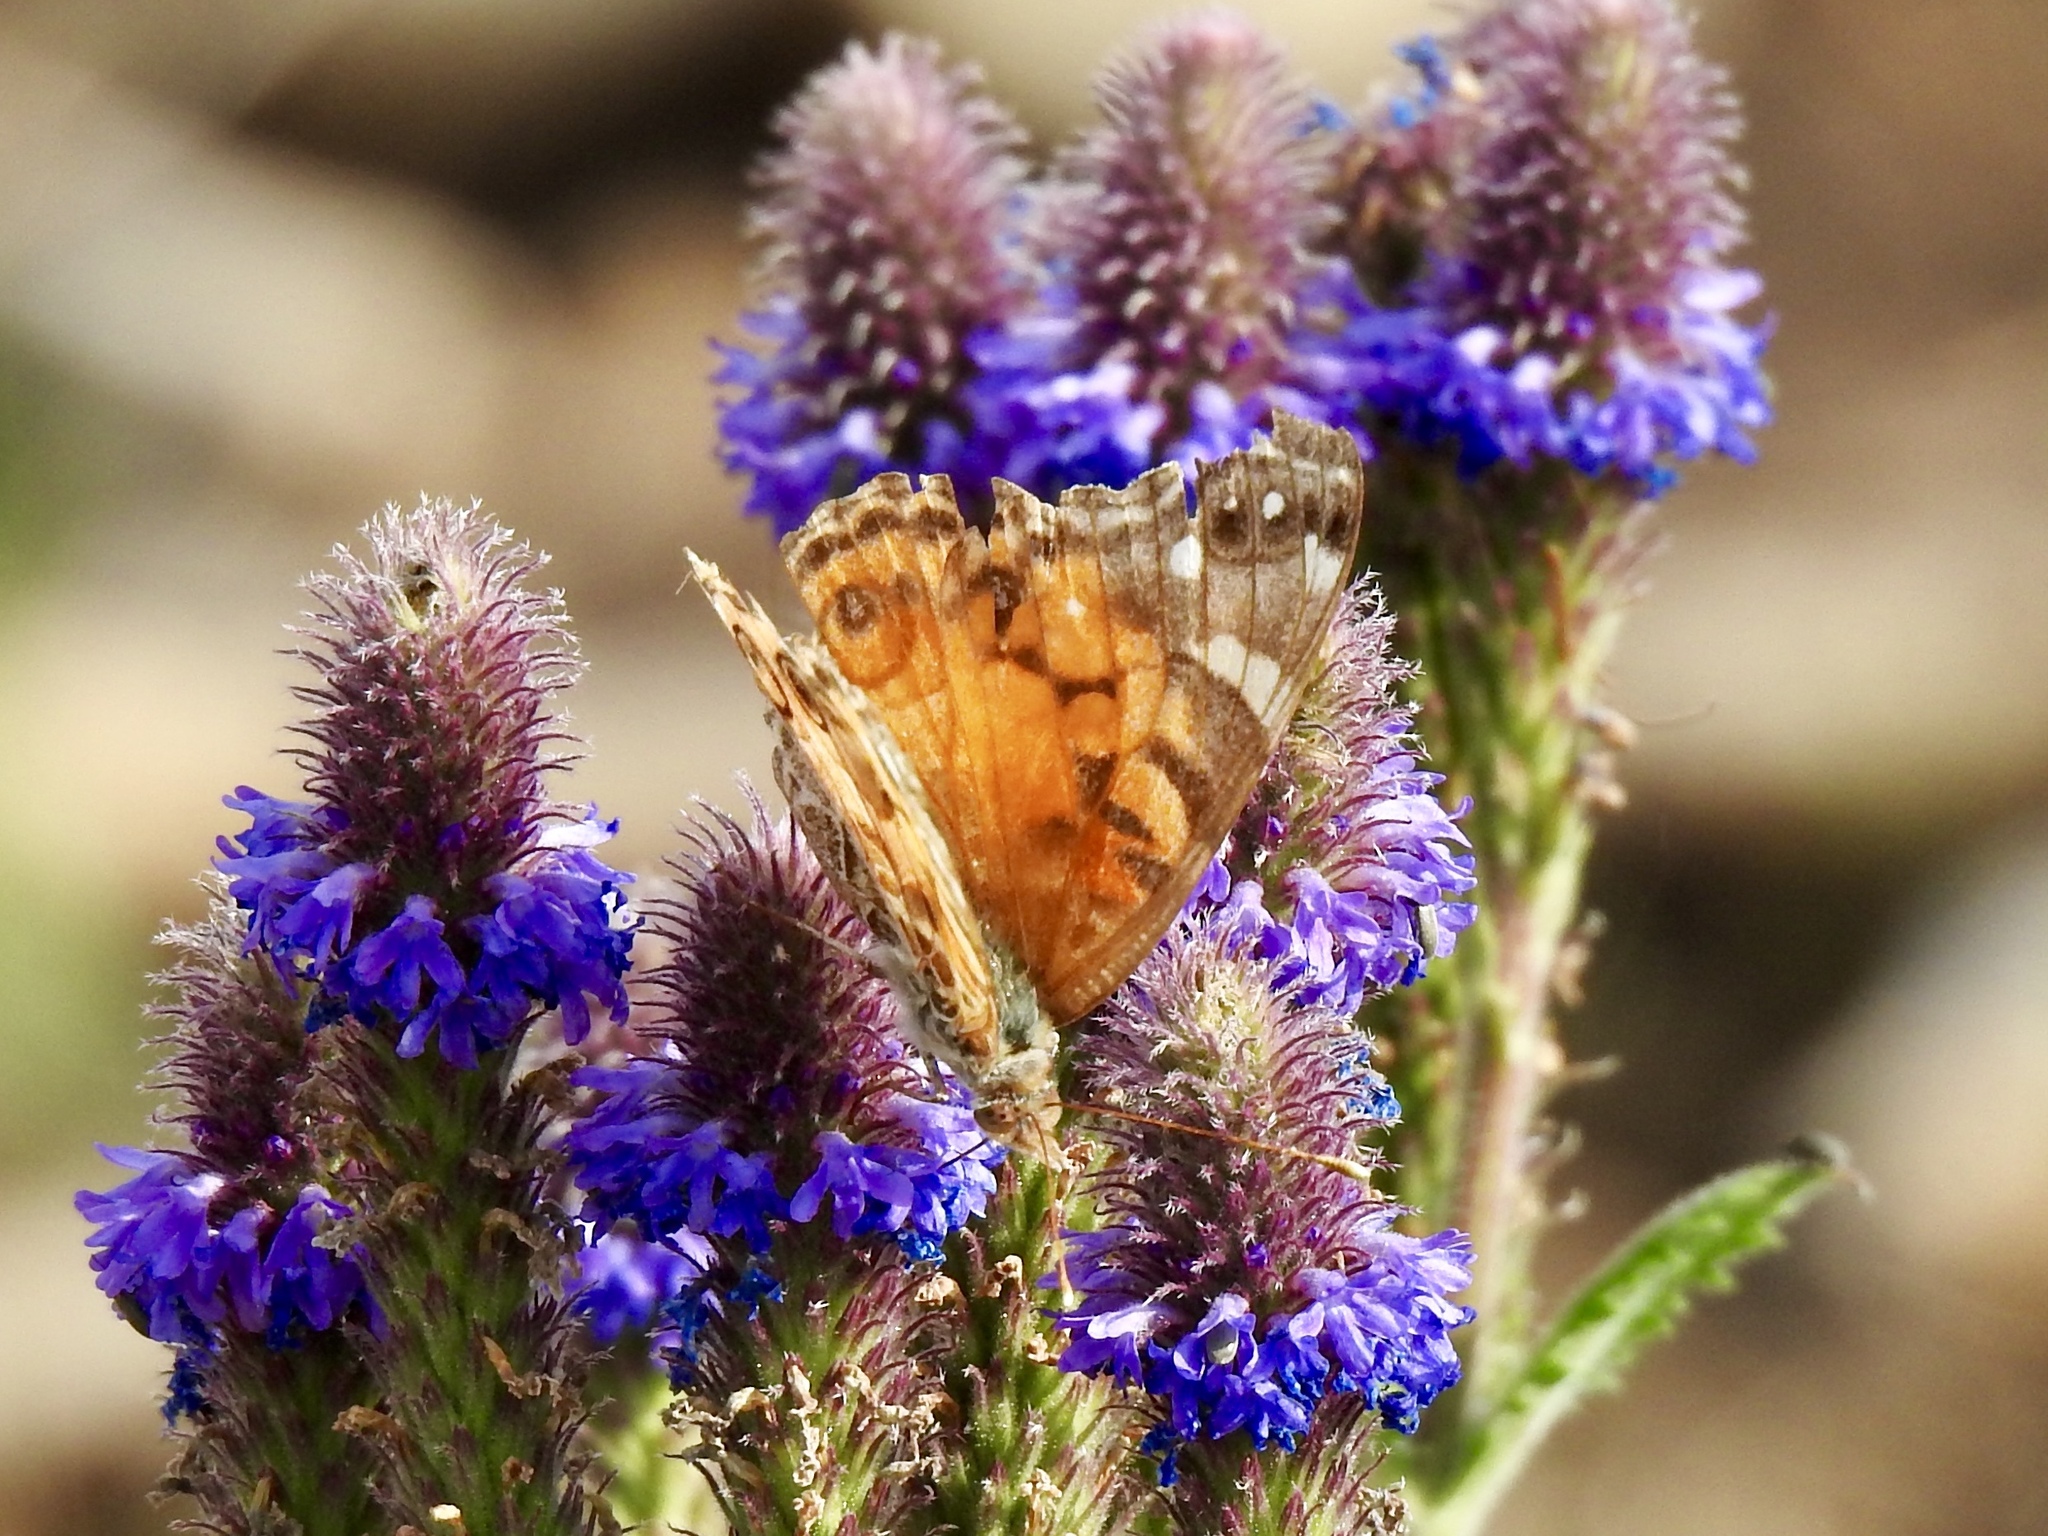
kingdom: Animalia
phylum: Arthropoda
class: Insecta
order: Lepidoptera
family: Nymphalidae
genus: Vanessa
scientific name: Vanessa virginiensis
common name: American lady
